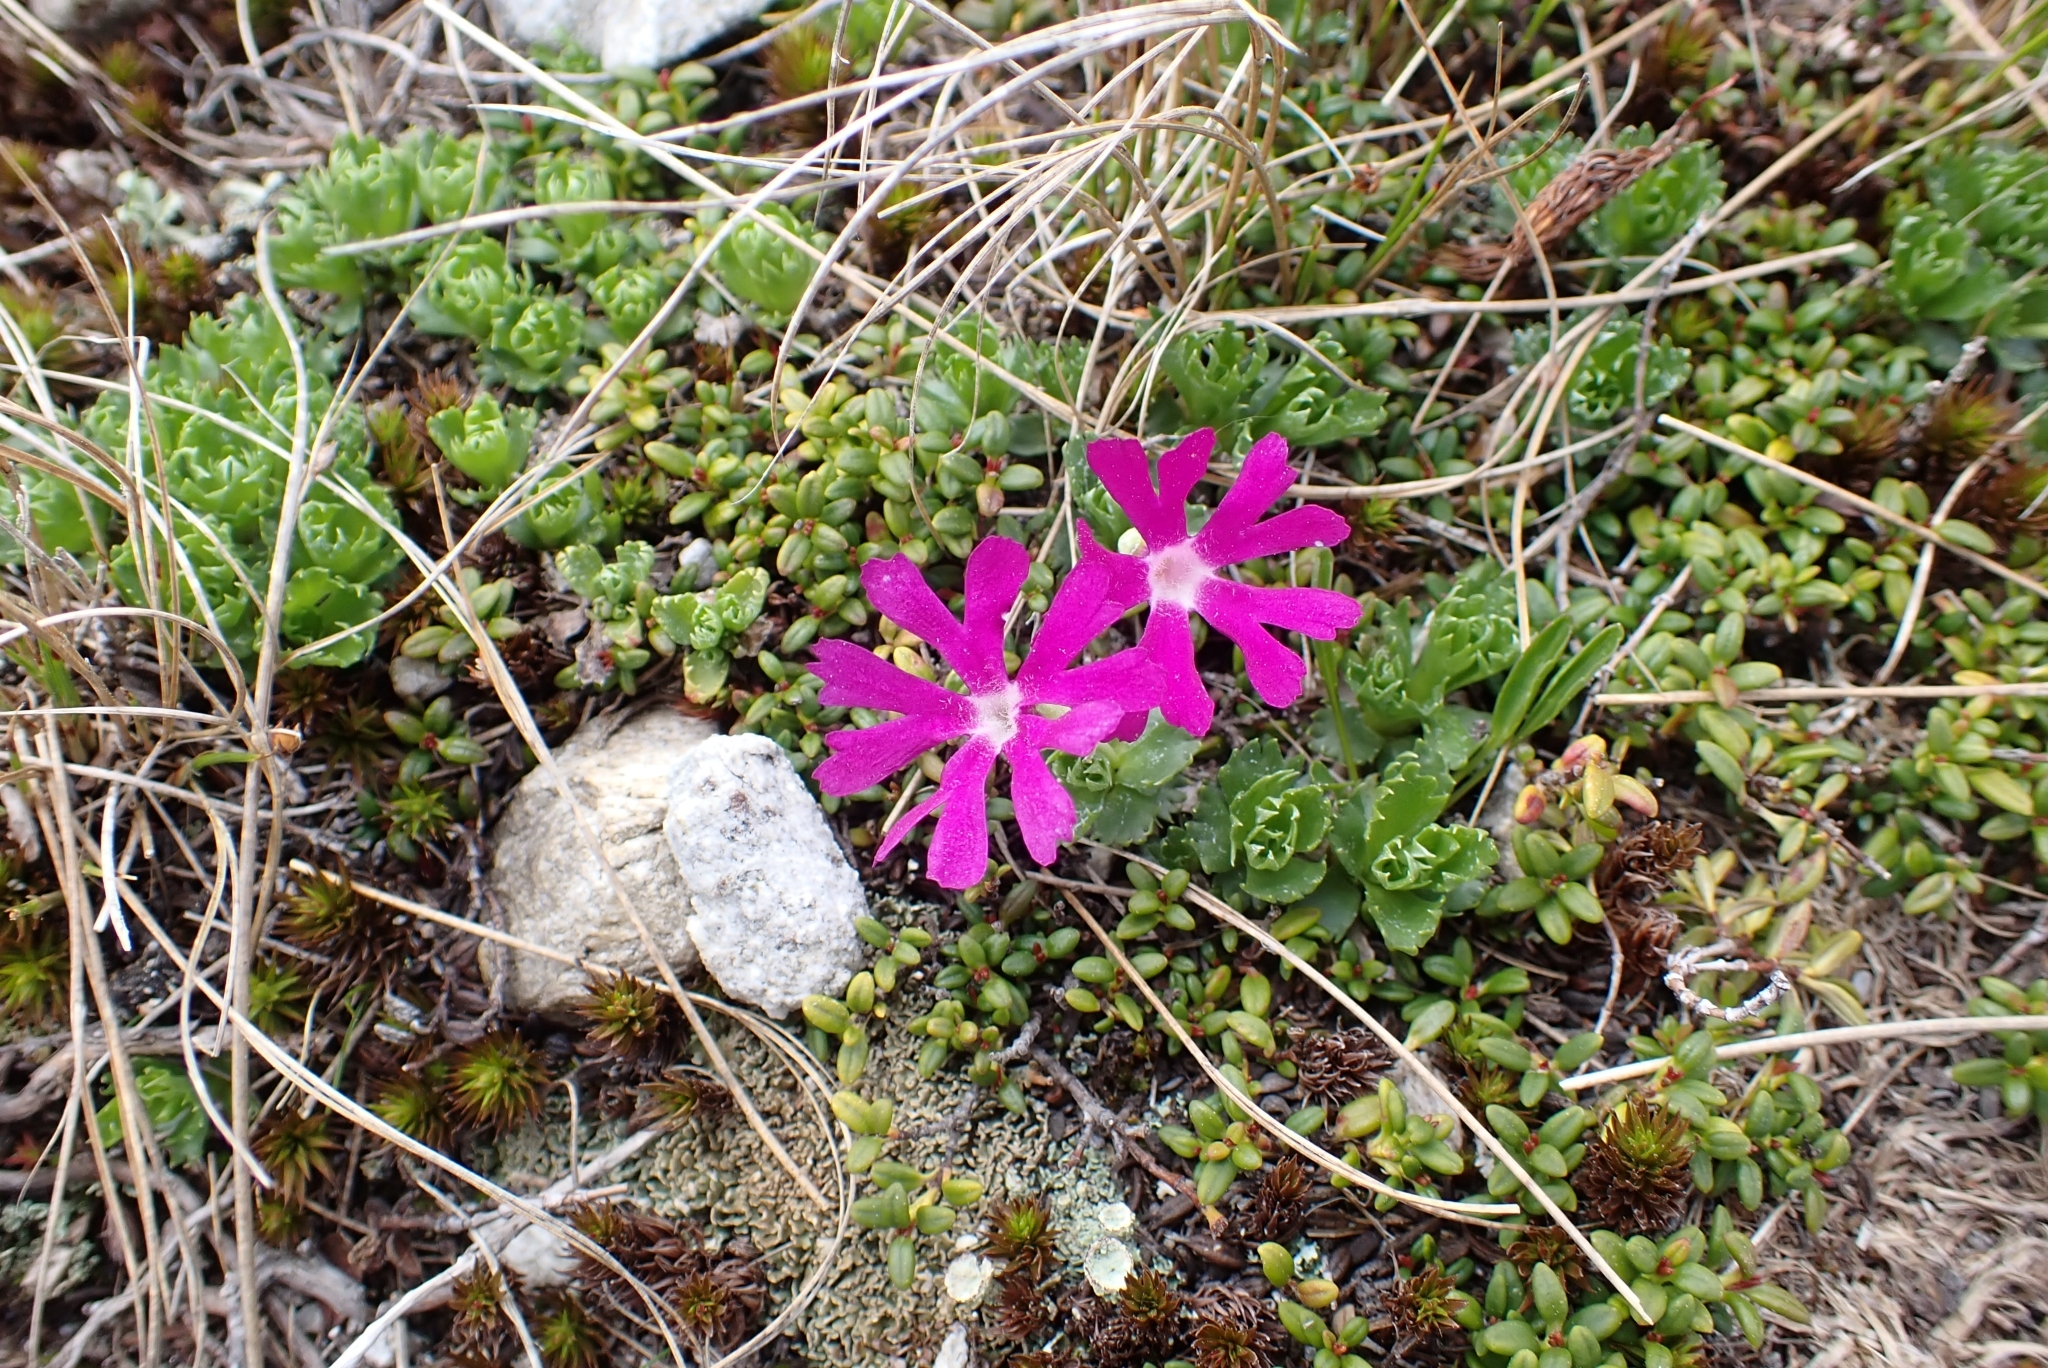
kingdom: Plantae
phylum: Tracheophyta
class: Magnoliopsida
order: Ericales
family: Primulaceae
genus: Primula
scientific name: Primula minima
